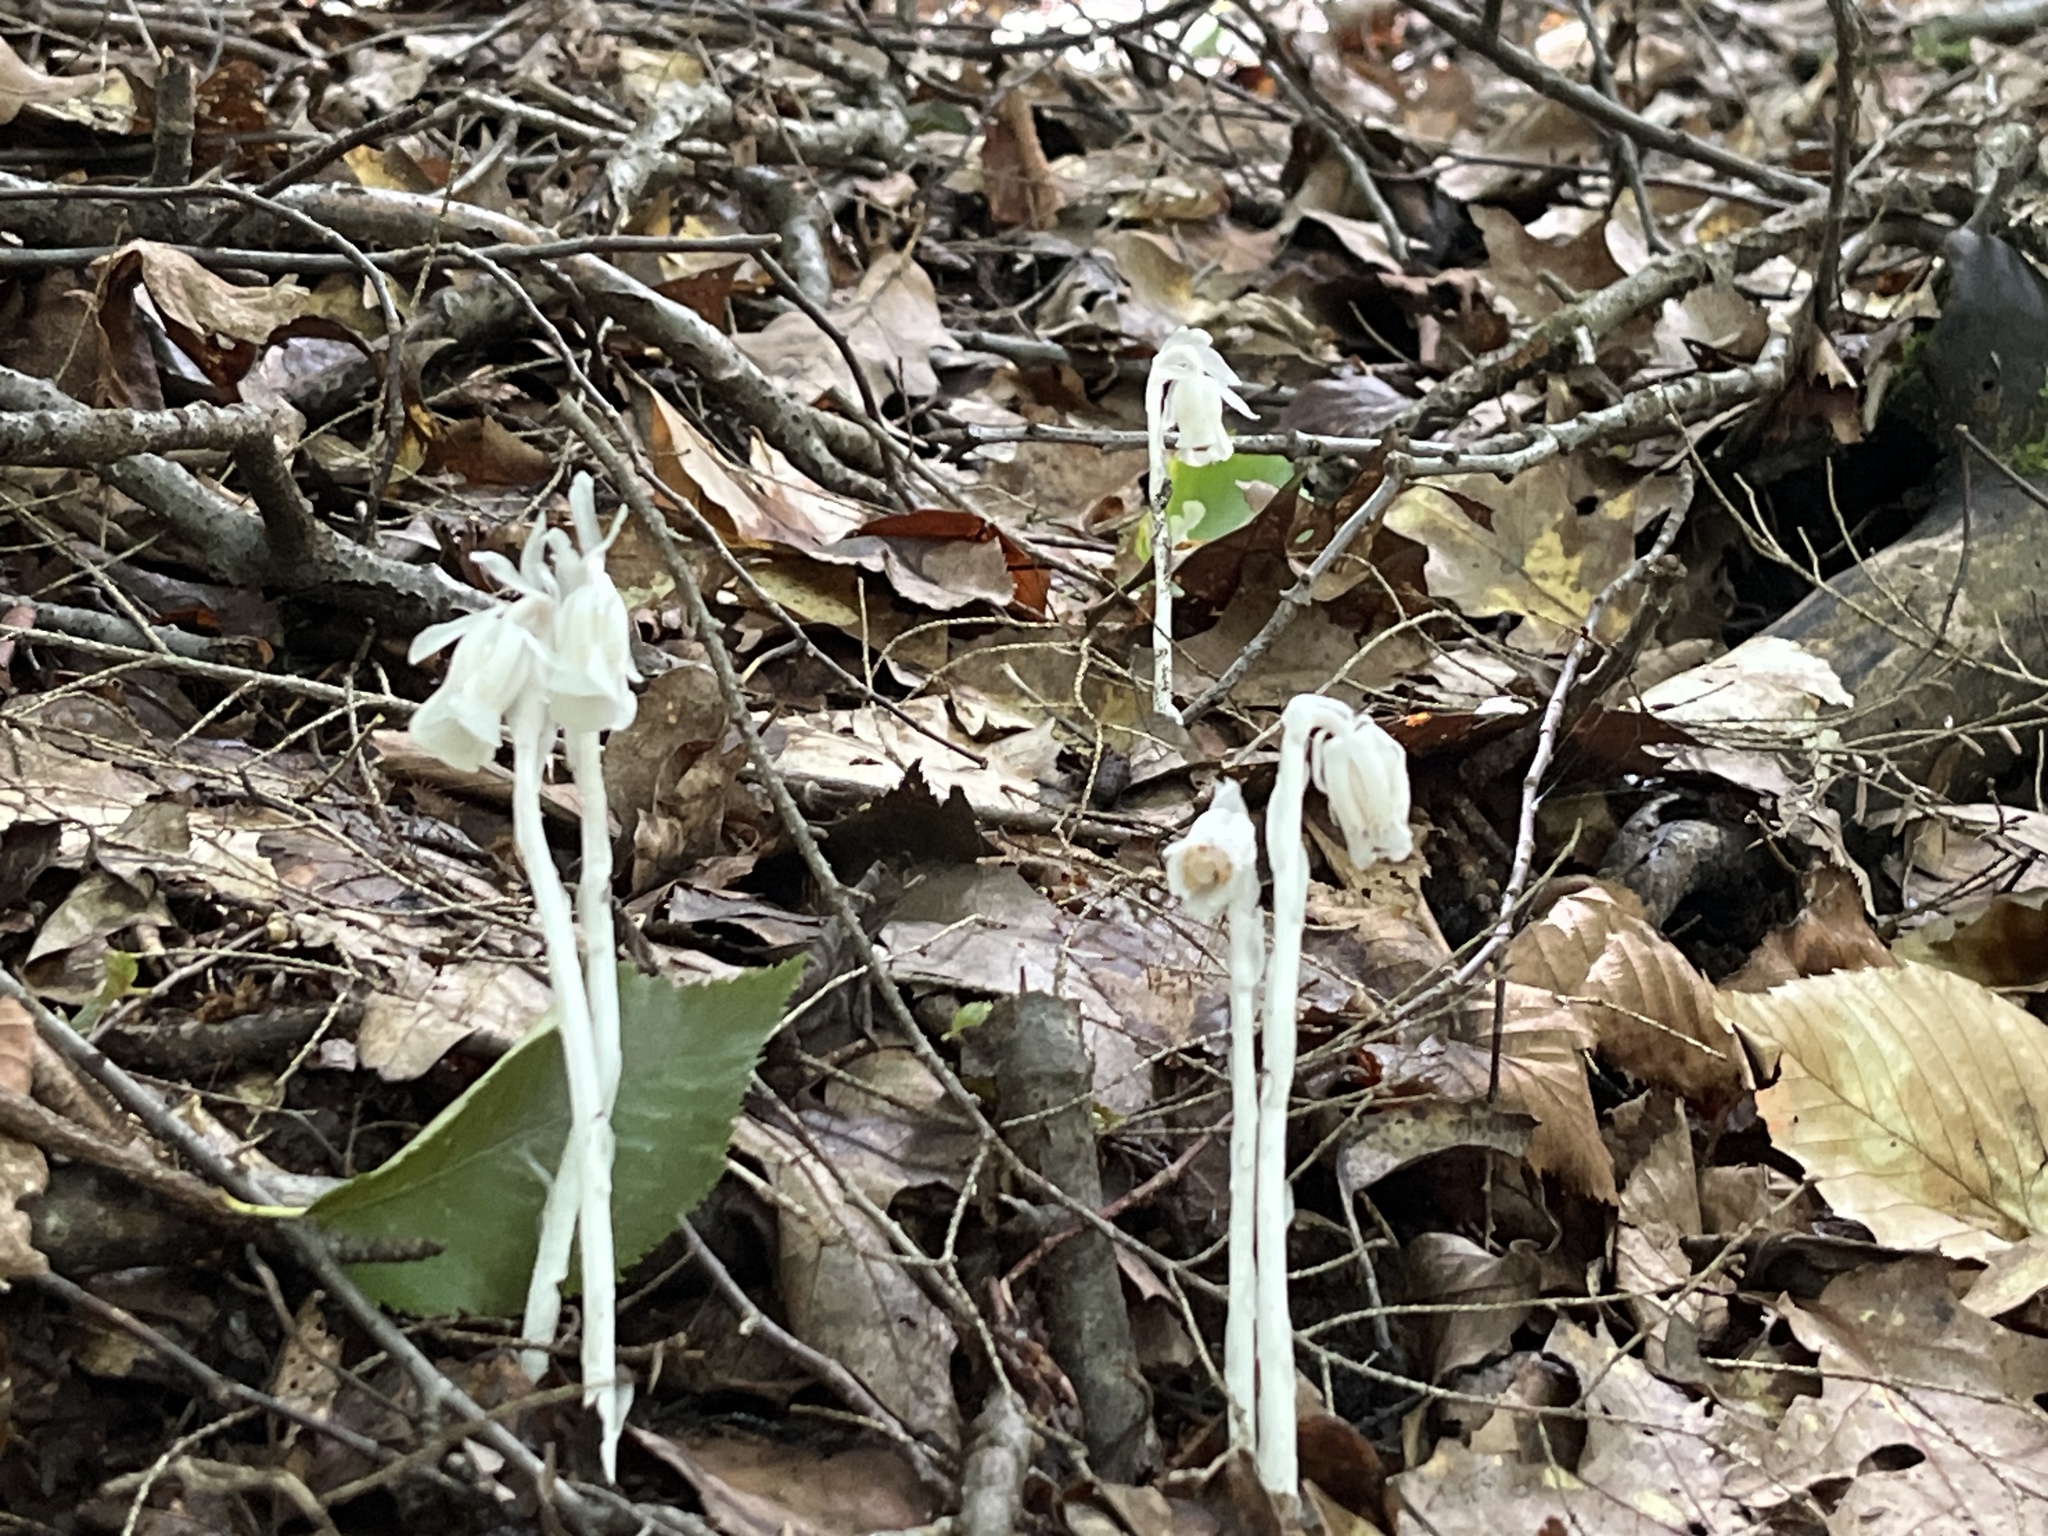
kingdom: Plantae
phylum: Tracheophyta
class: Magnoliopsida
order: Ericales
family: Ericaceae
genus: Monotropa
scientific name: Monotropa uniflora
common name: Convulsion root
